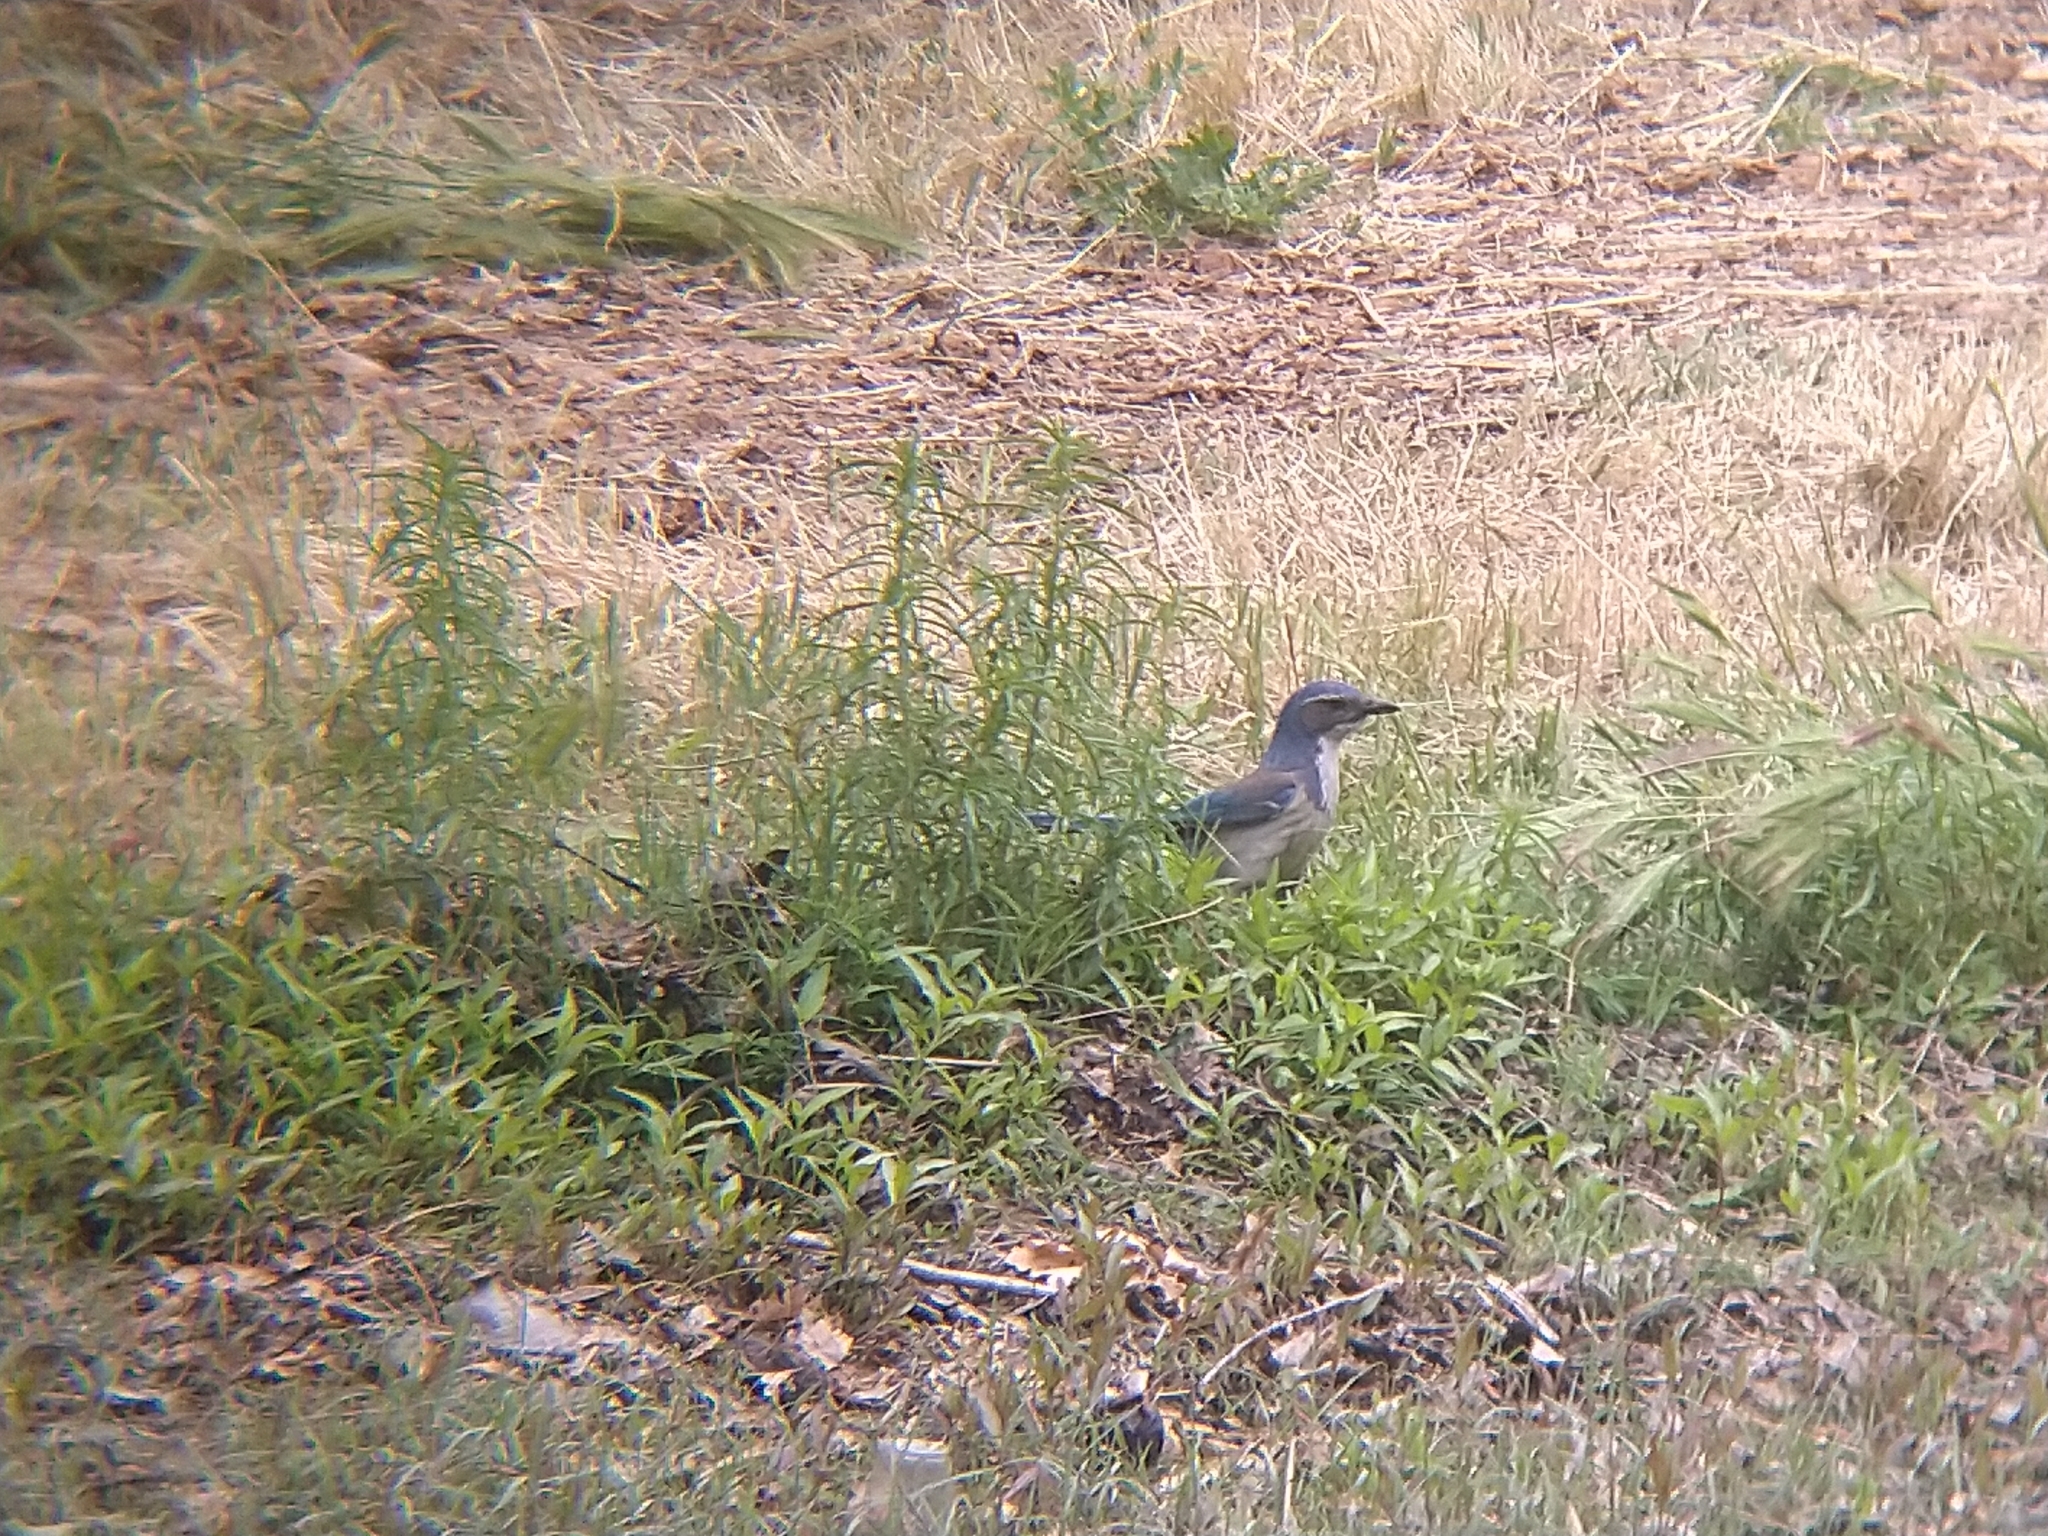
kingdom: Animalia
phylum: Chordata
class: Aves
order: Passeriformes
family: Corvidae
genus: Aphelocoma
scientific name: Aphelocoma californica
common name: California scrub-jay
